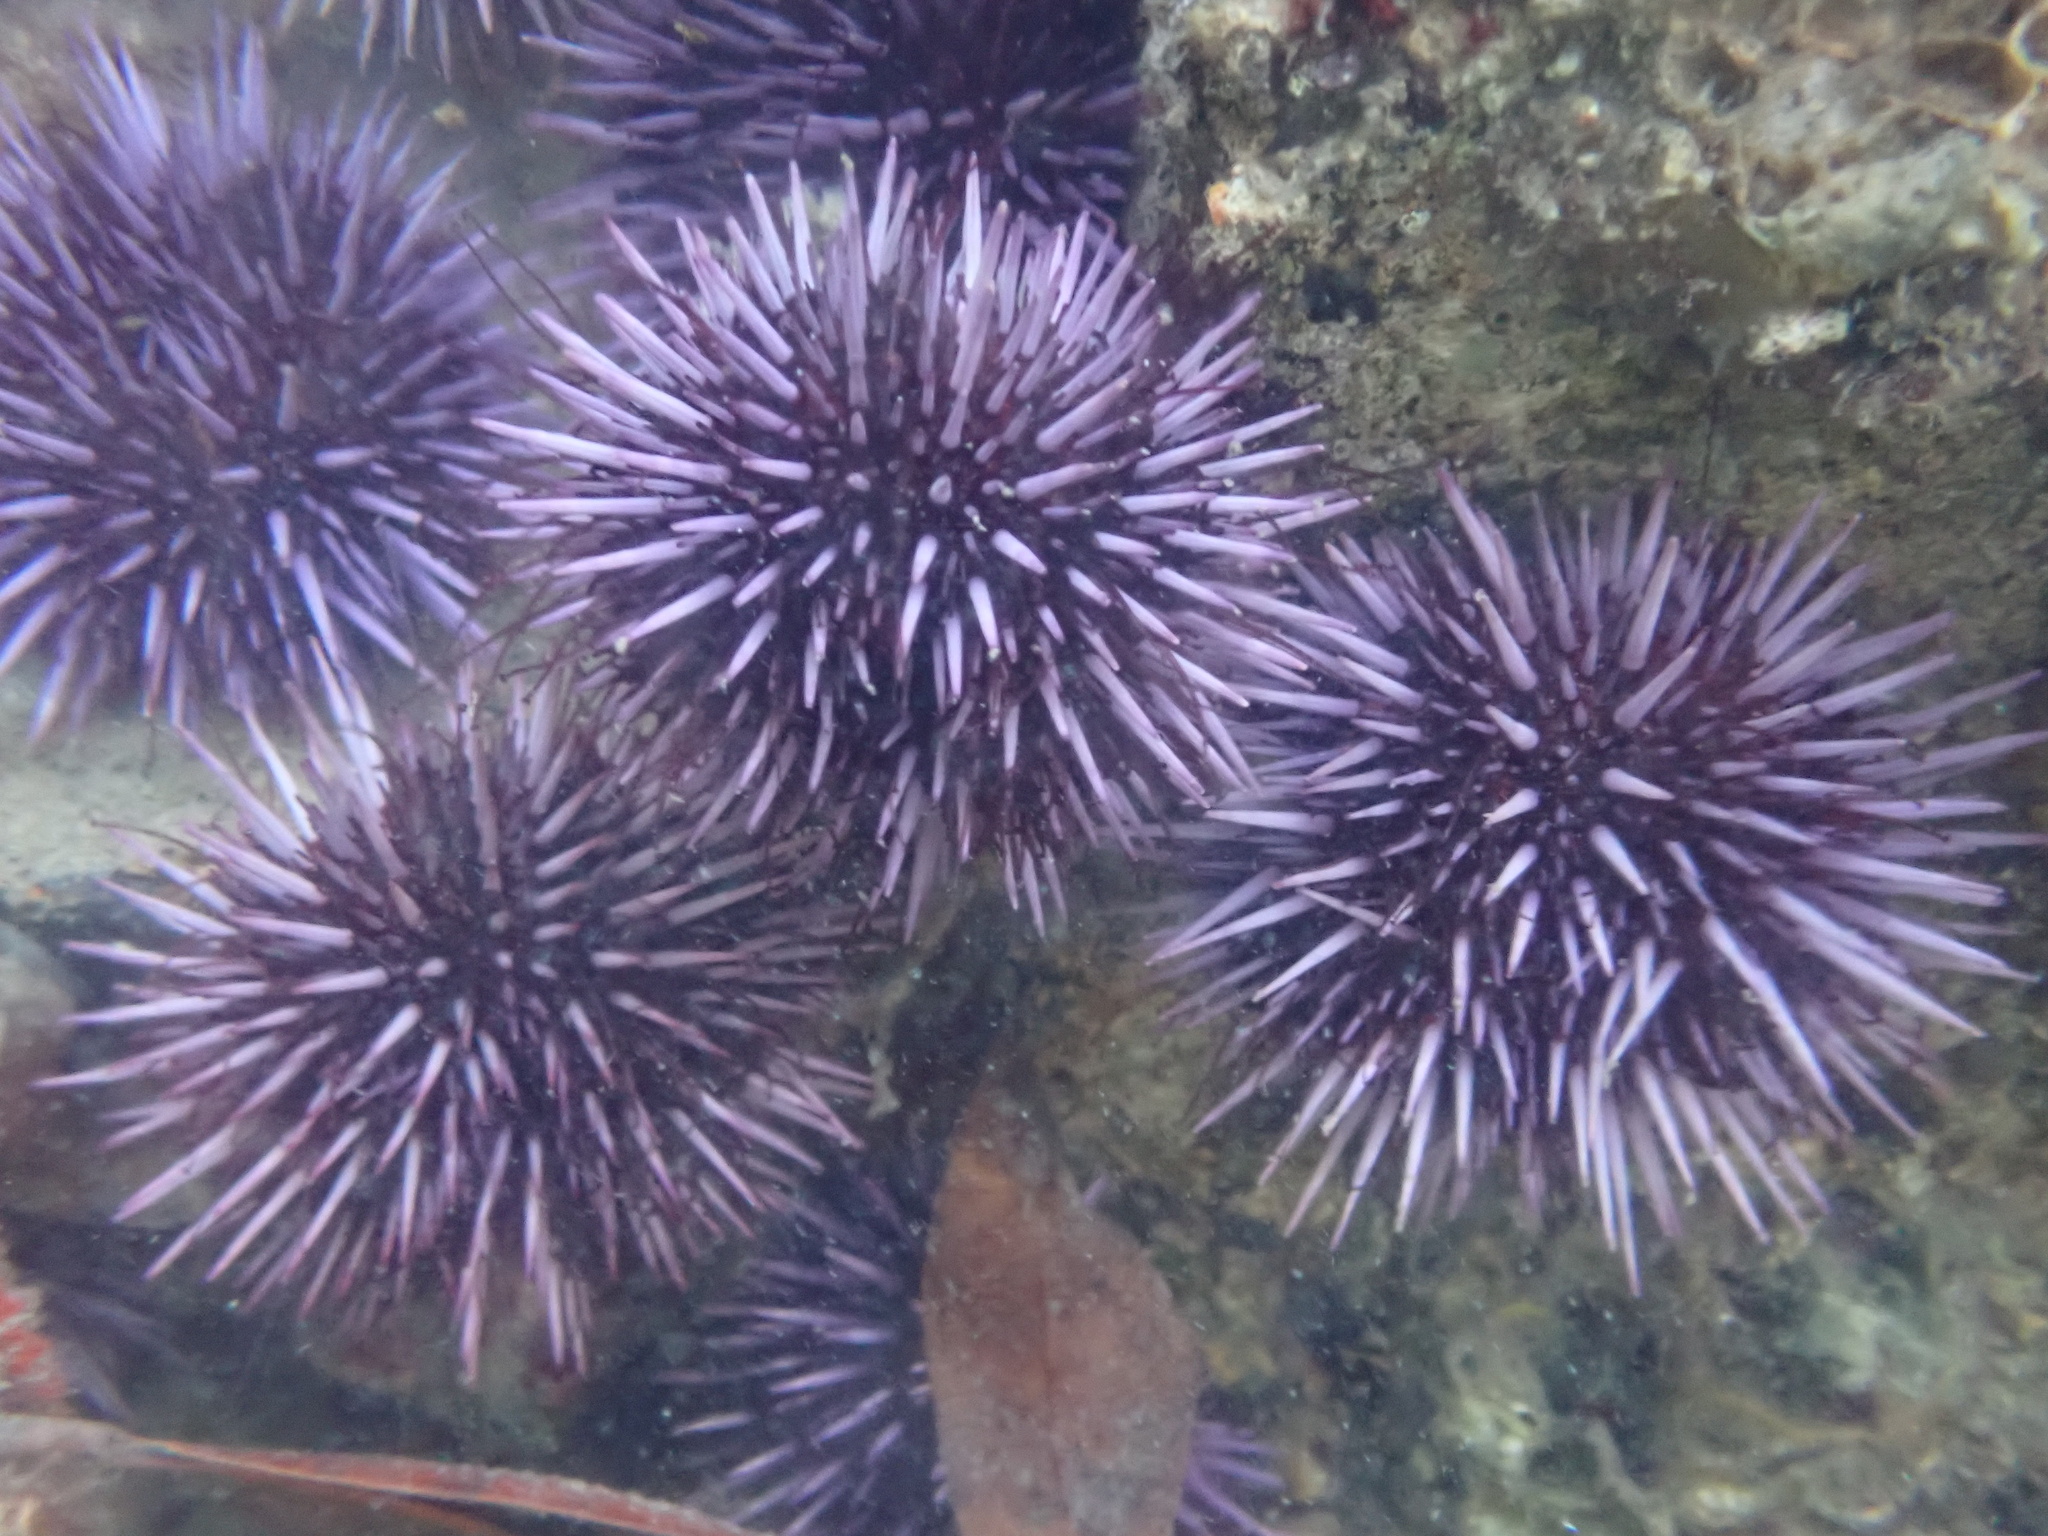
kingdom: Animalia
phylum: Echinodermata
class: Echinoidea
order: Camarodonta
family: Strongylocentrotidae
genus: Strongylocentrotus
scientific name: Strongylocentrotus purpuratus
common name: Purple sea urchin
